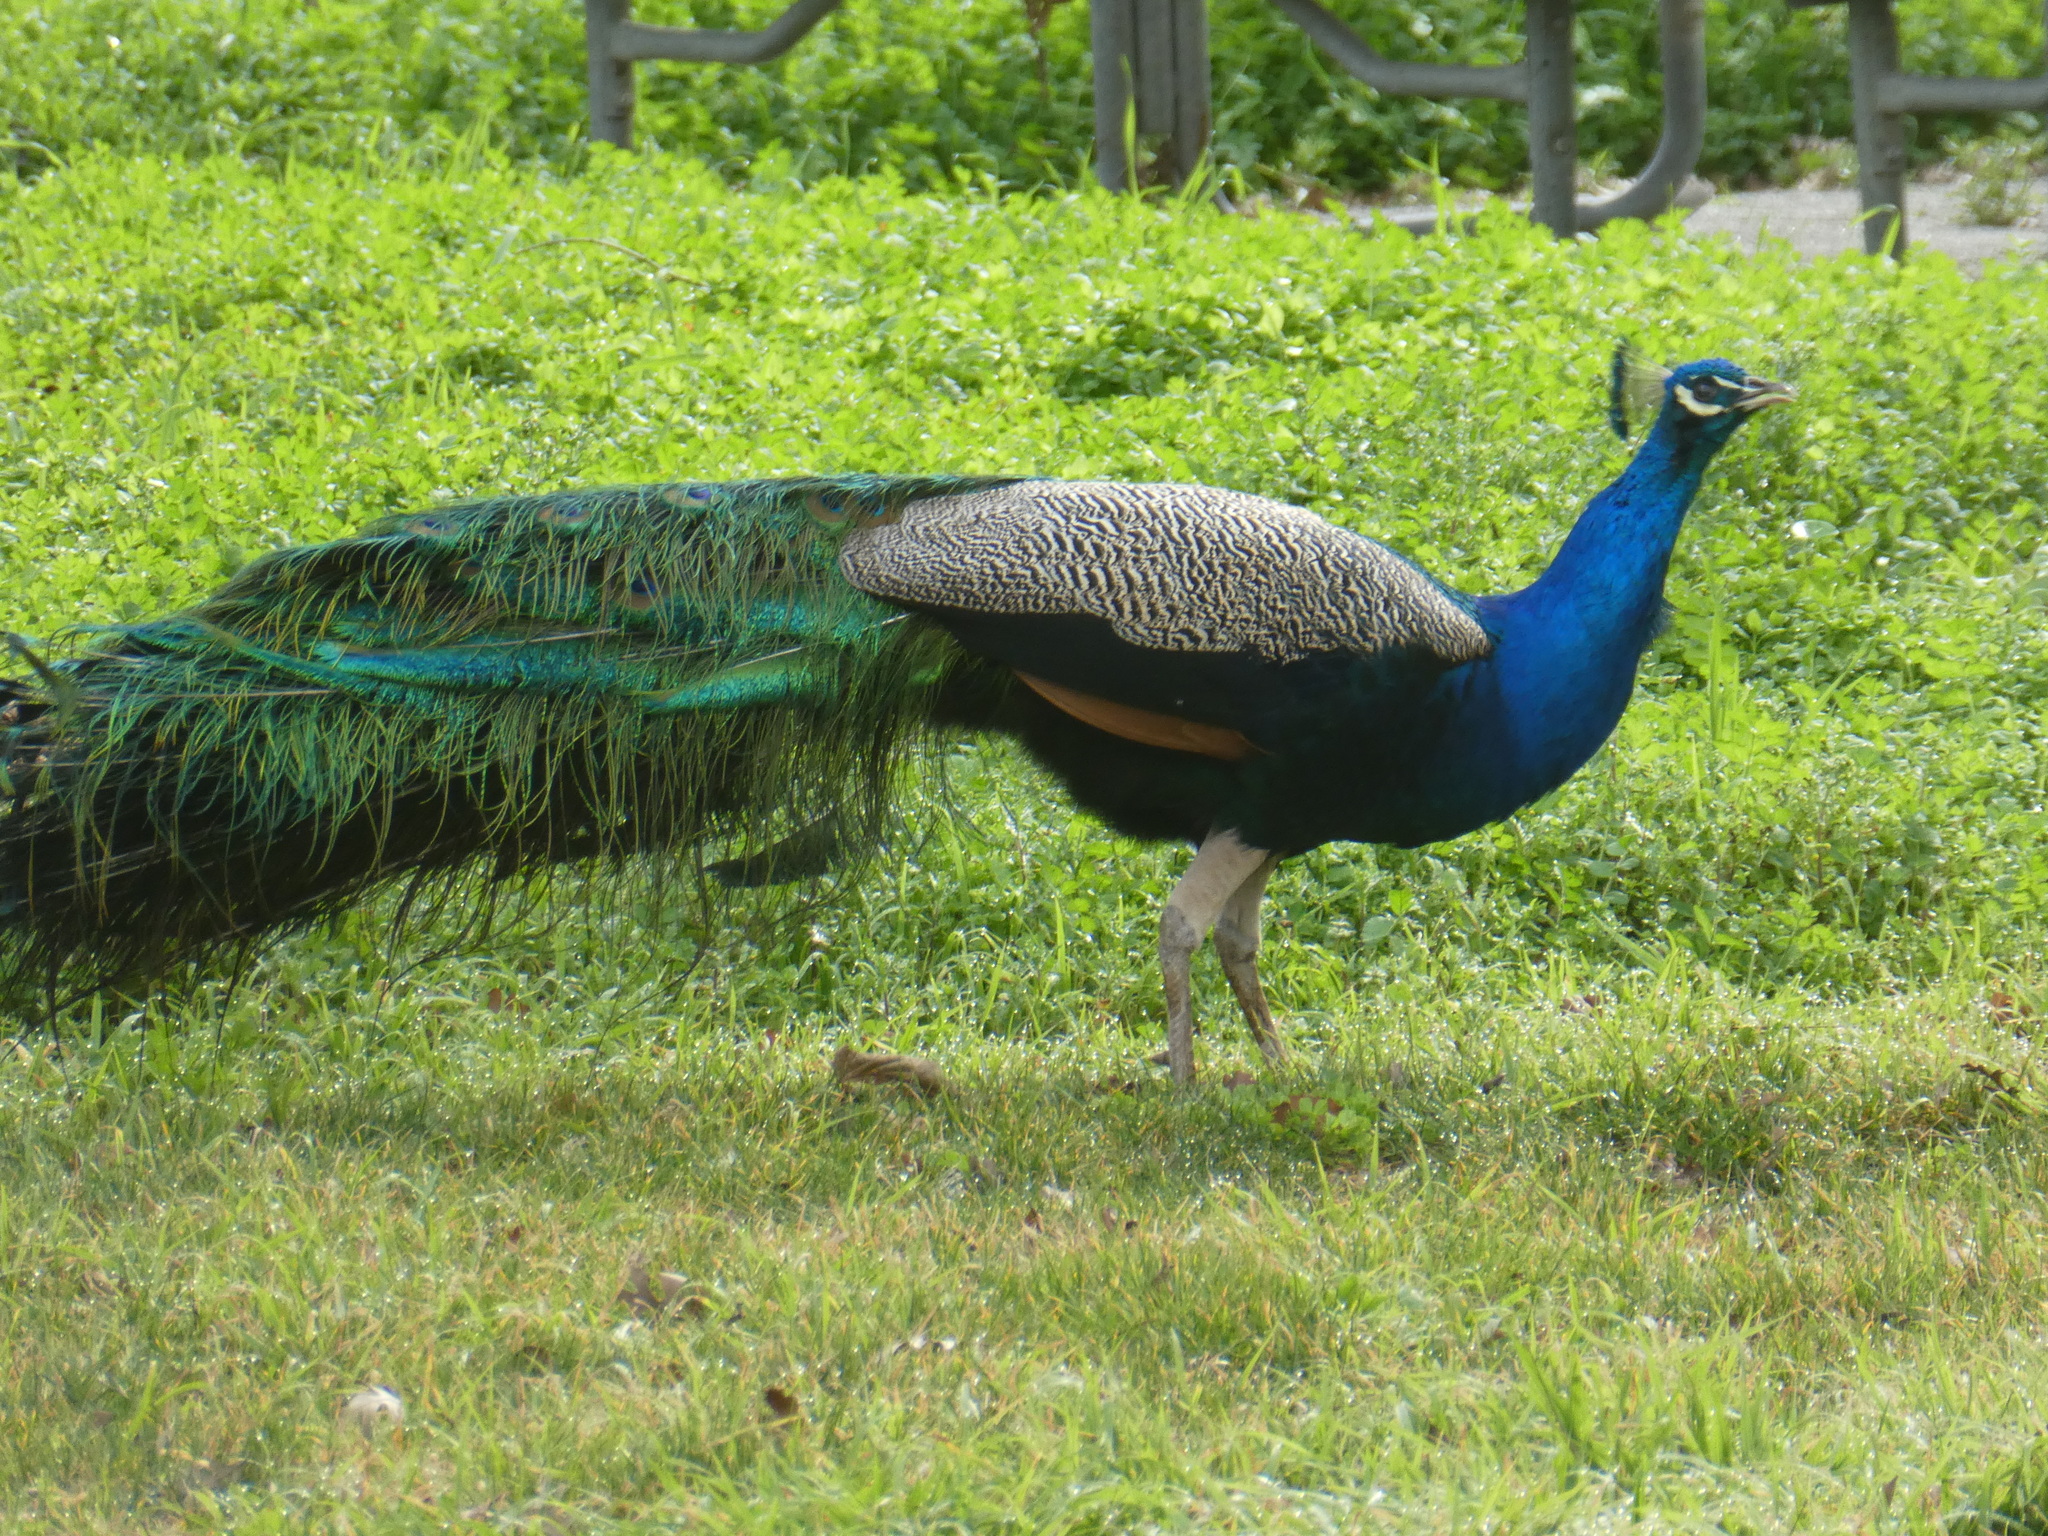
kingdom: Animalia
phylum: Chordata
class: Aves
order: Galliformes
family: Phasianidae
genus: Pavo
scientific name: Pavo cristatus
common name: Indian peafowl
